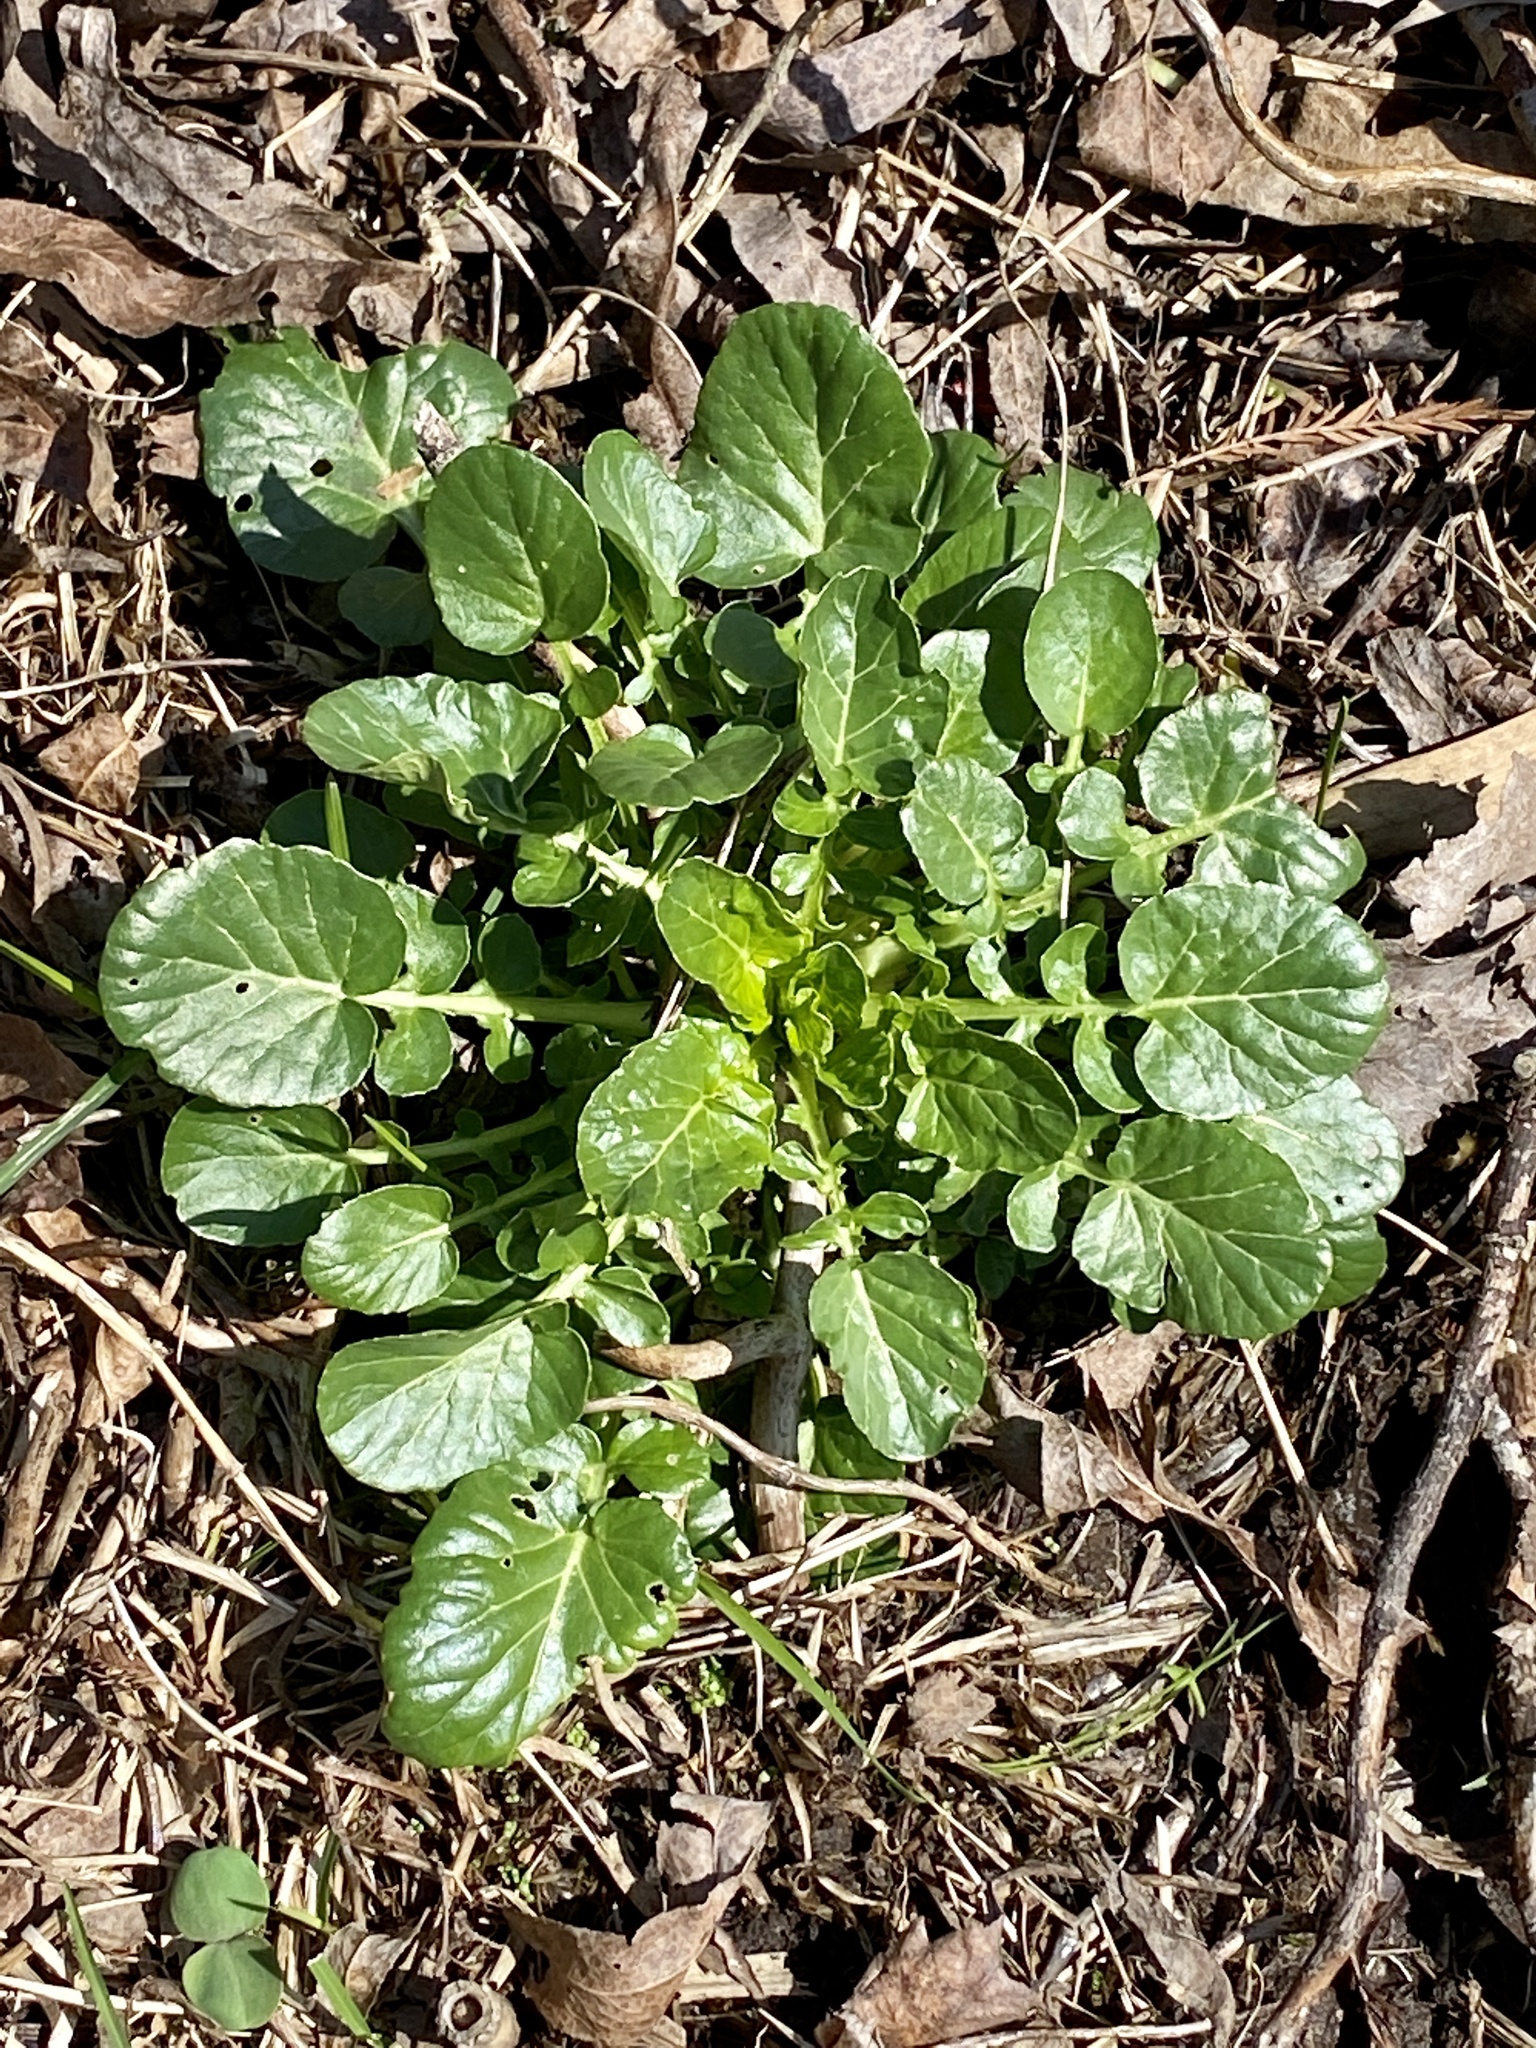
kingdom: Plantae
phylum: Tracheophyta
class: Magnoliopsida
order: Brassicales
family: Brassicaceae
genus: Barbarea
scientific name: Barbarea vulgaris
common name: Cressy-greens
